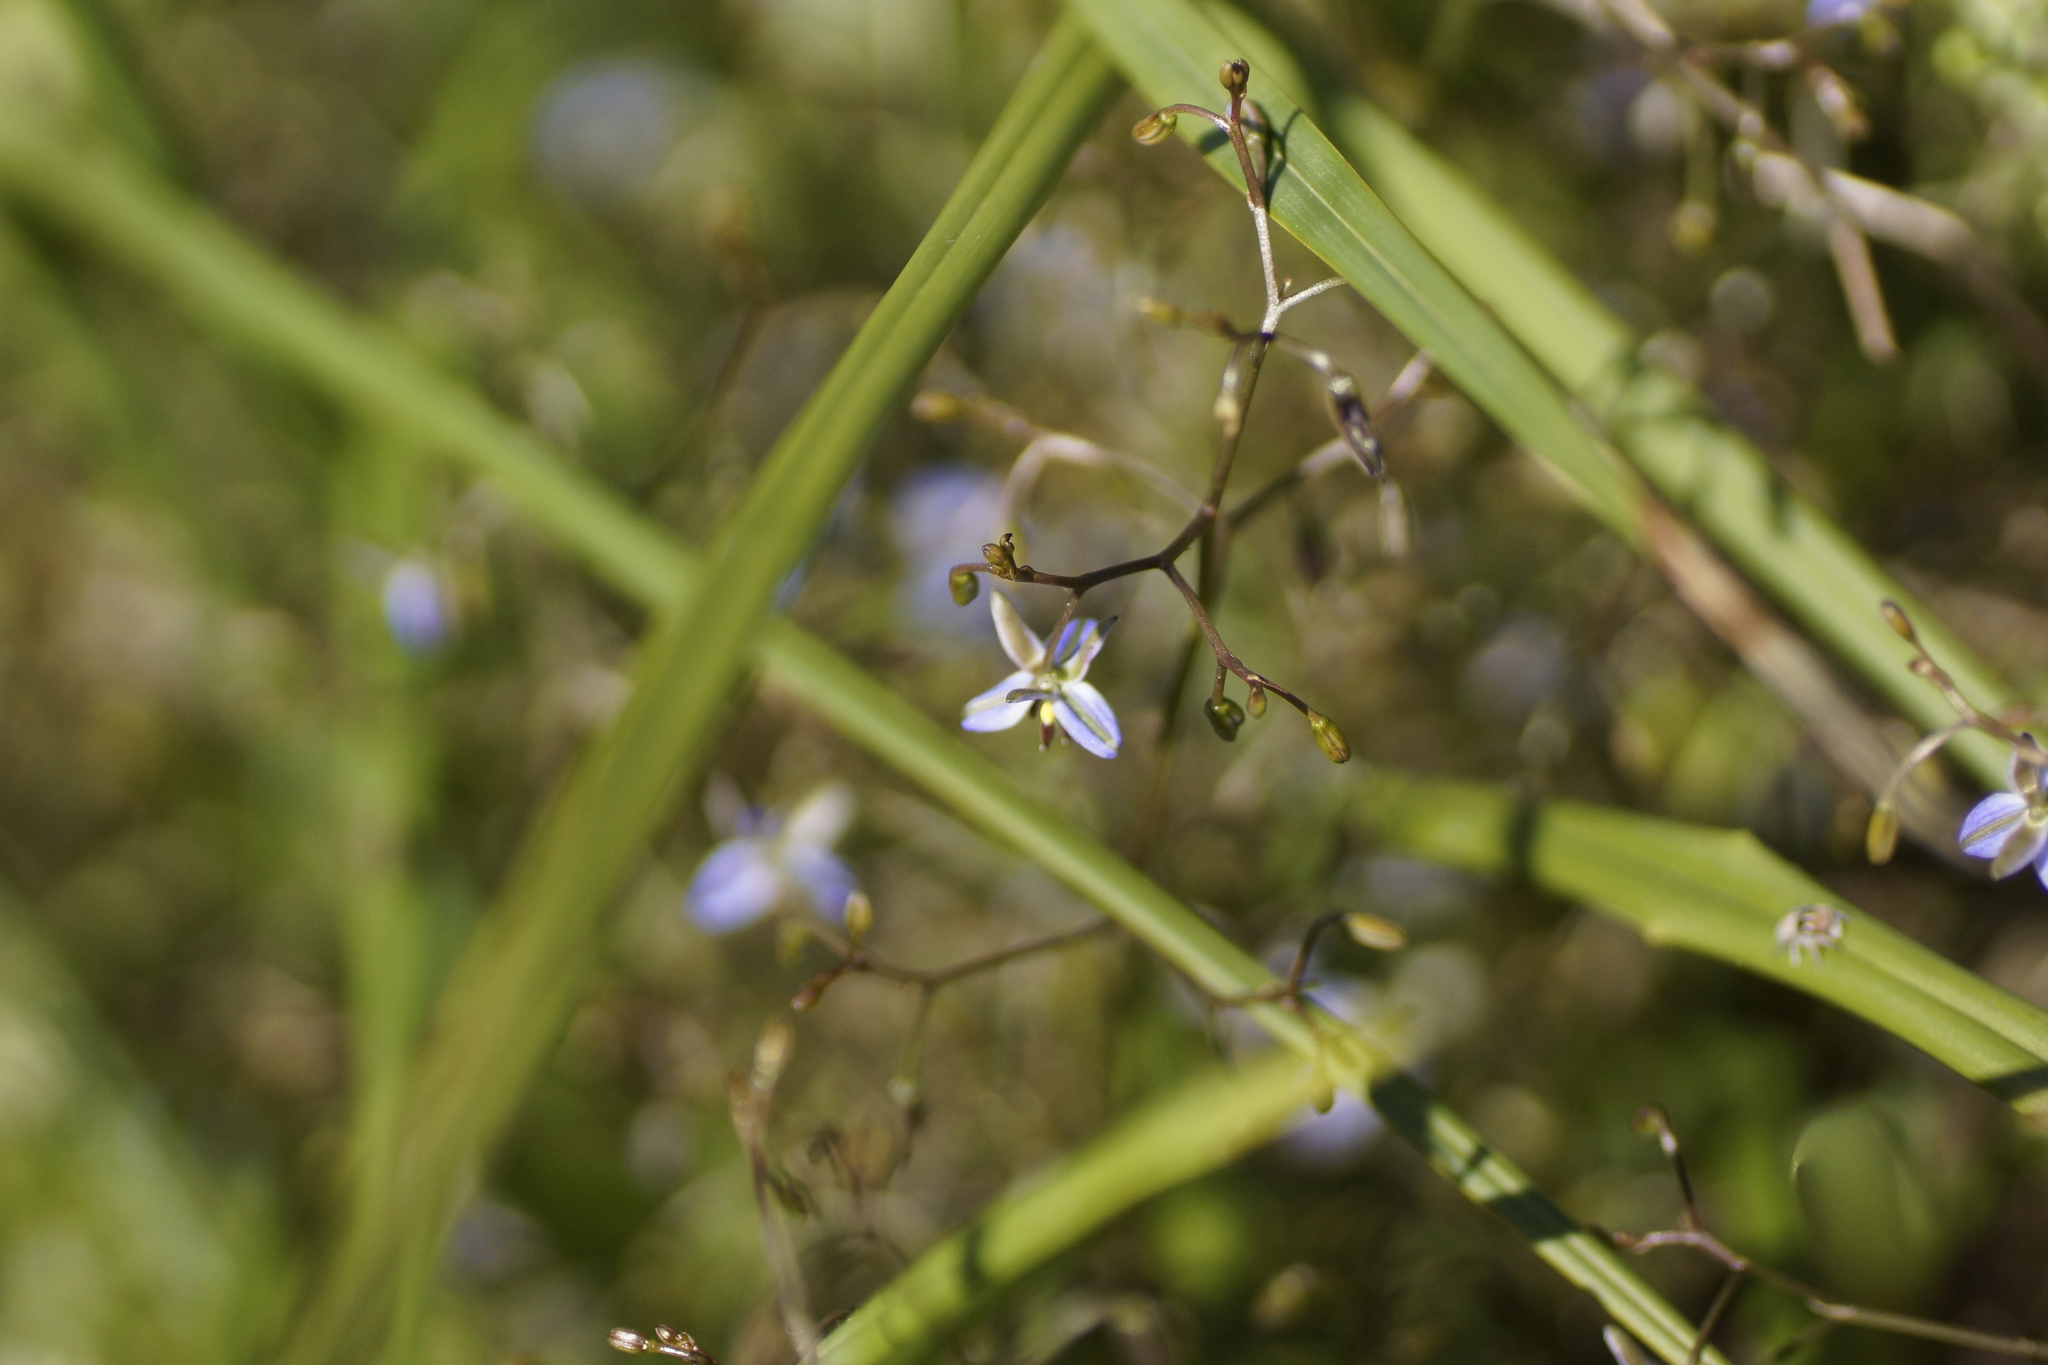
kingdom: Plantae
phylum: Tracheophyta
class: Liliopsida
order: Asparagales
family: Asphodelaceae
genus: Dianella
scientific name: Dianella brevicaulis
